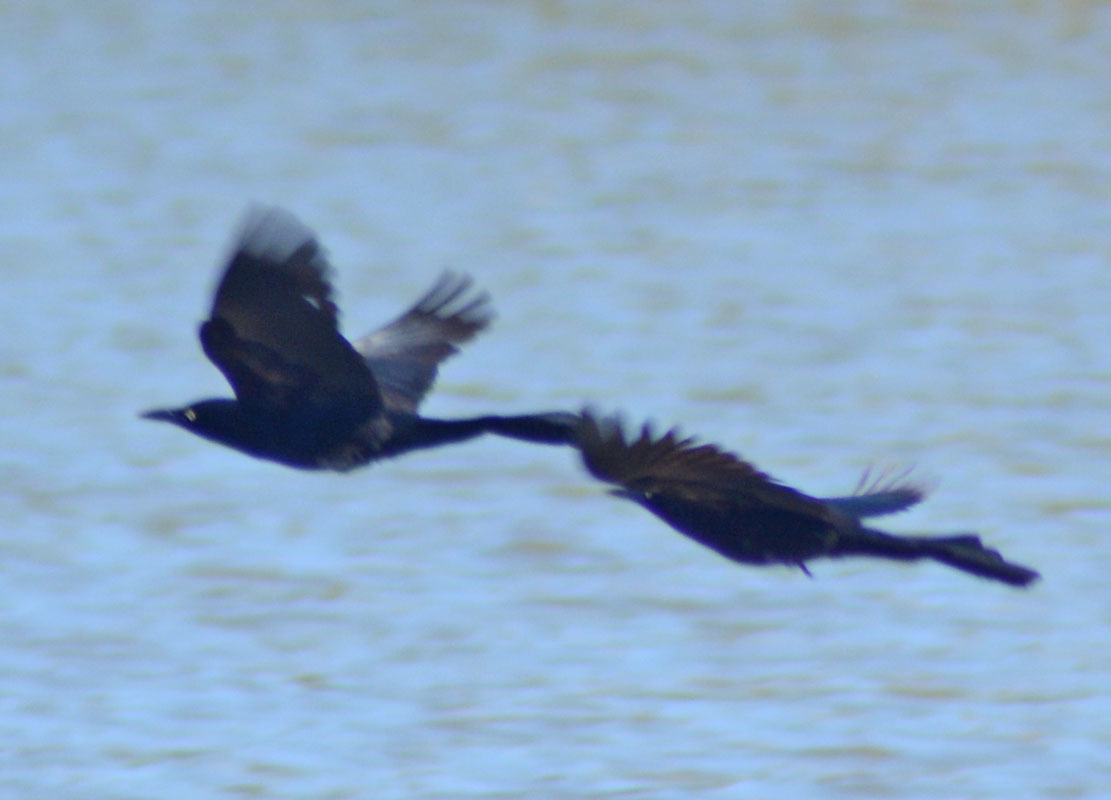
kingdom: Animalia
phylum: Chordata
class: Aves
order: Passeriformes
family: Icteridae
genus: Quiscalus
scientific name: Quiscalus mexicanus
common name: Great-tailed grackle
